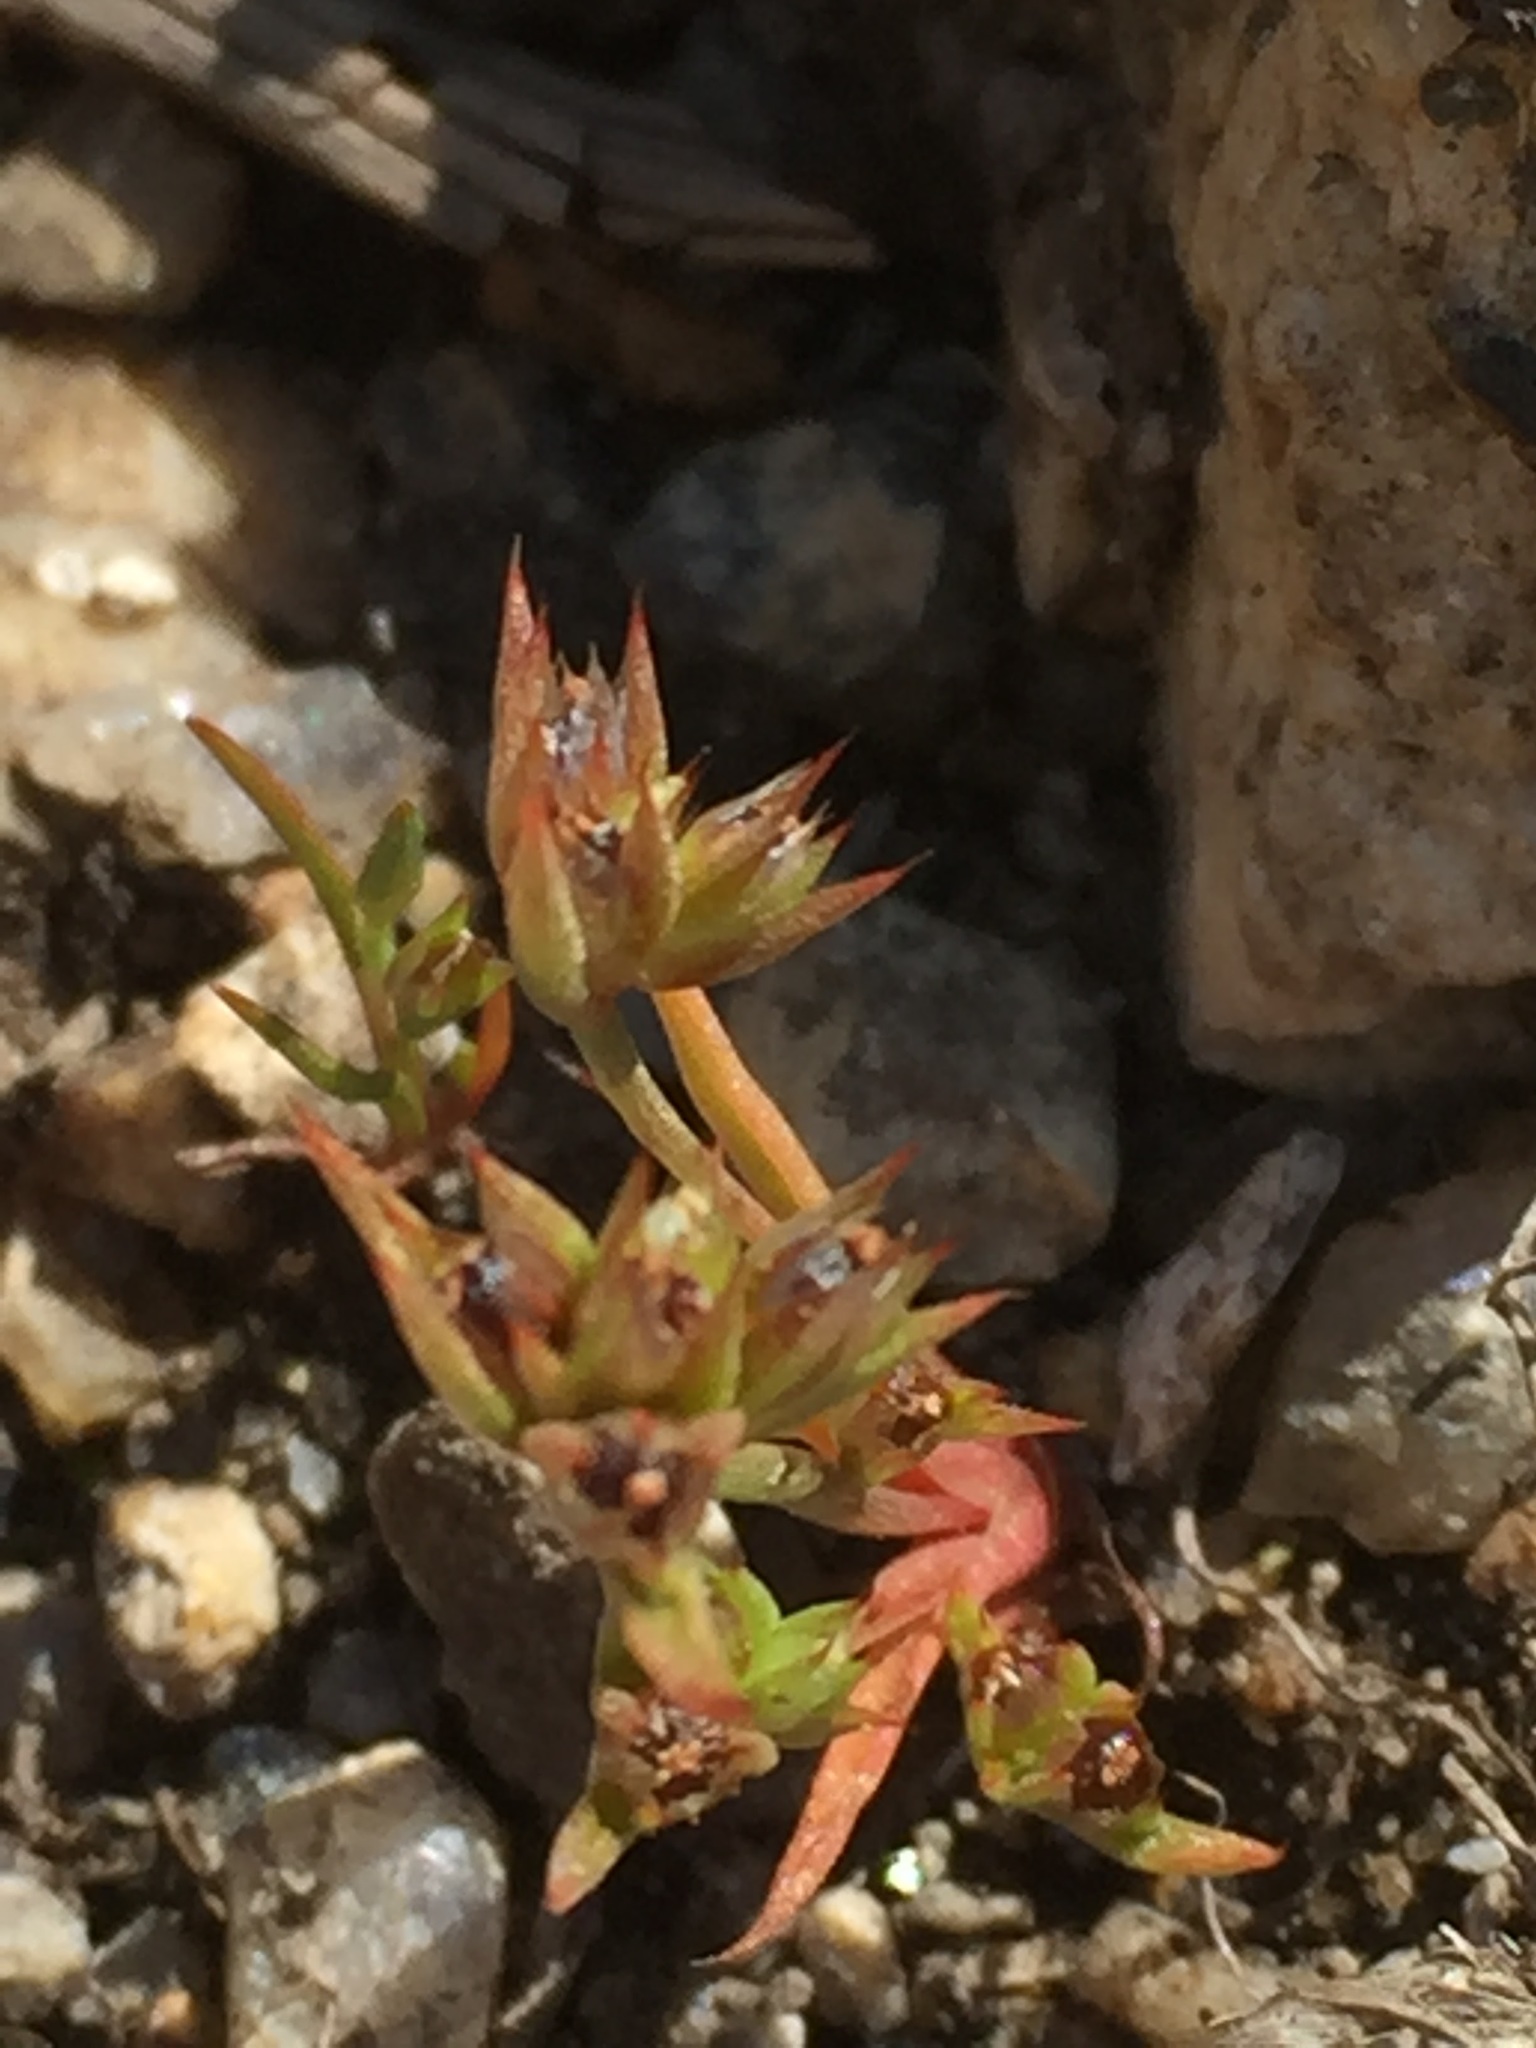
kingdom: Plantae
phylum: Tracheophyta
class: Liliopsida
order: Poales
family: Juncaceae
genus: Juncus
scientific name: Juncus capitatus
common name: Dwarf rush
